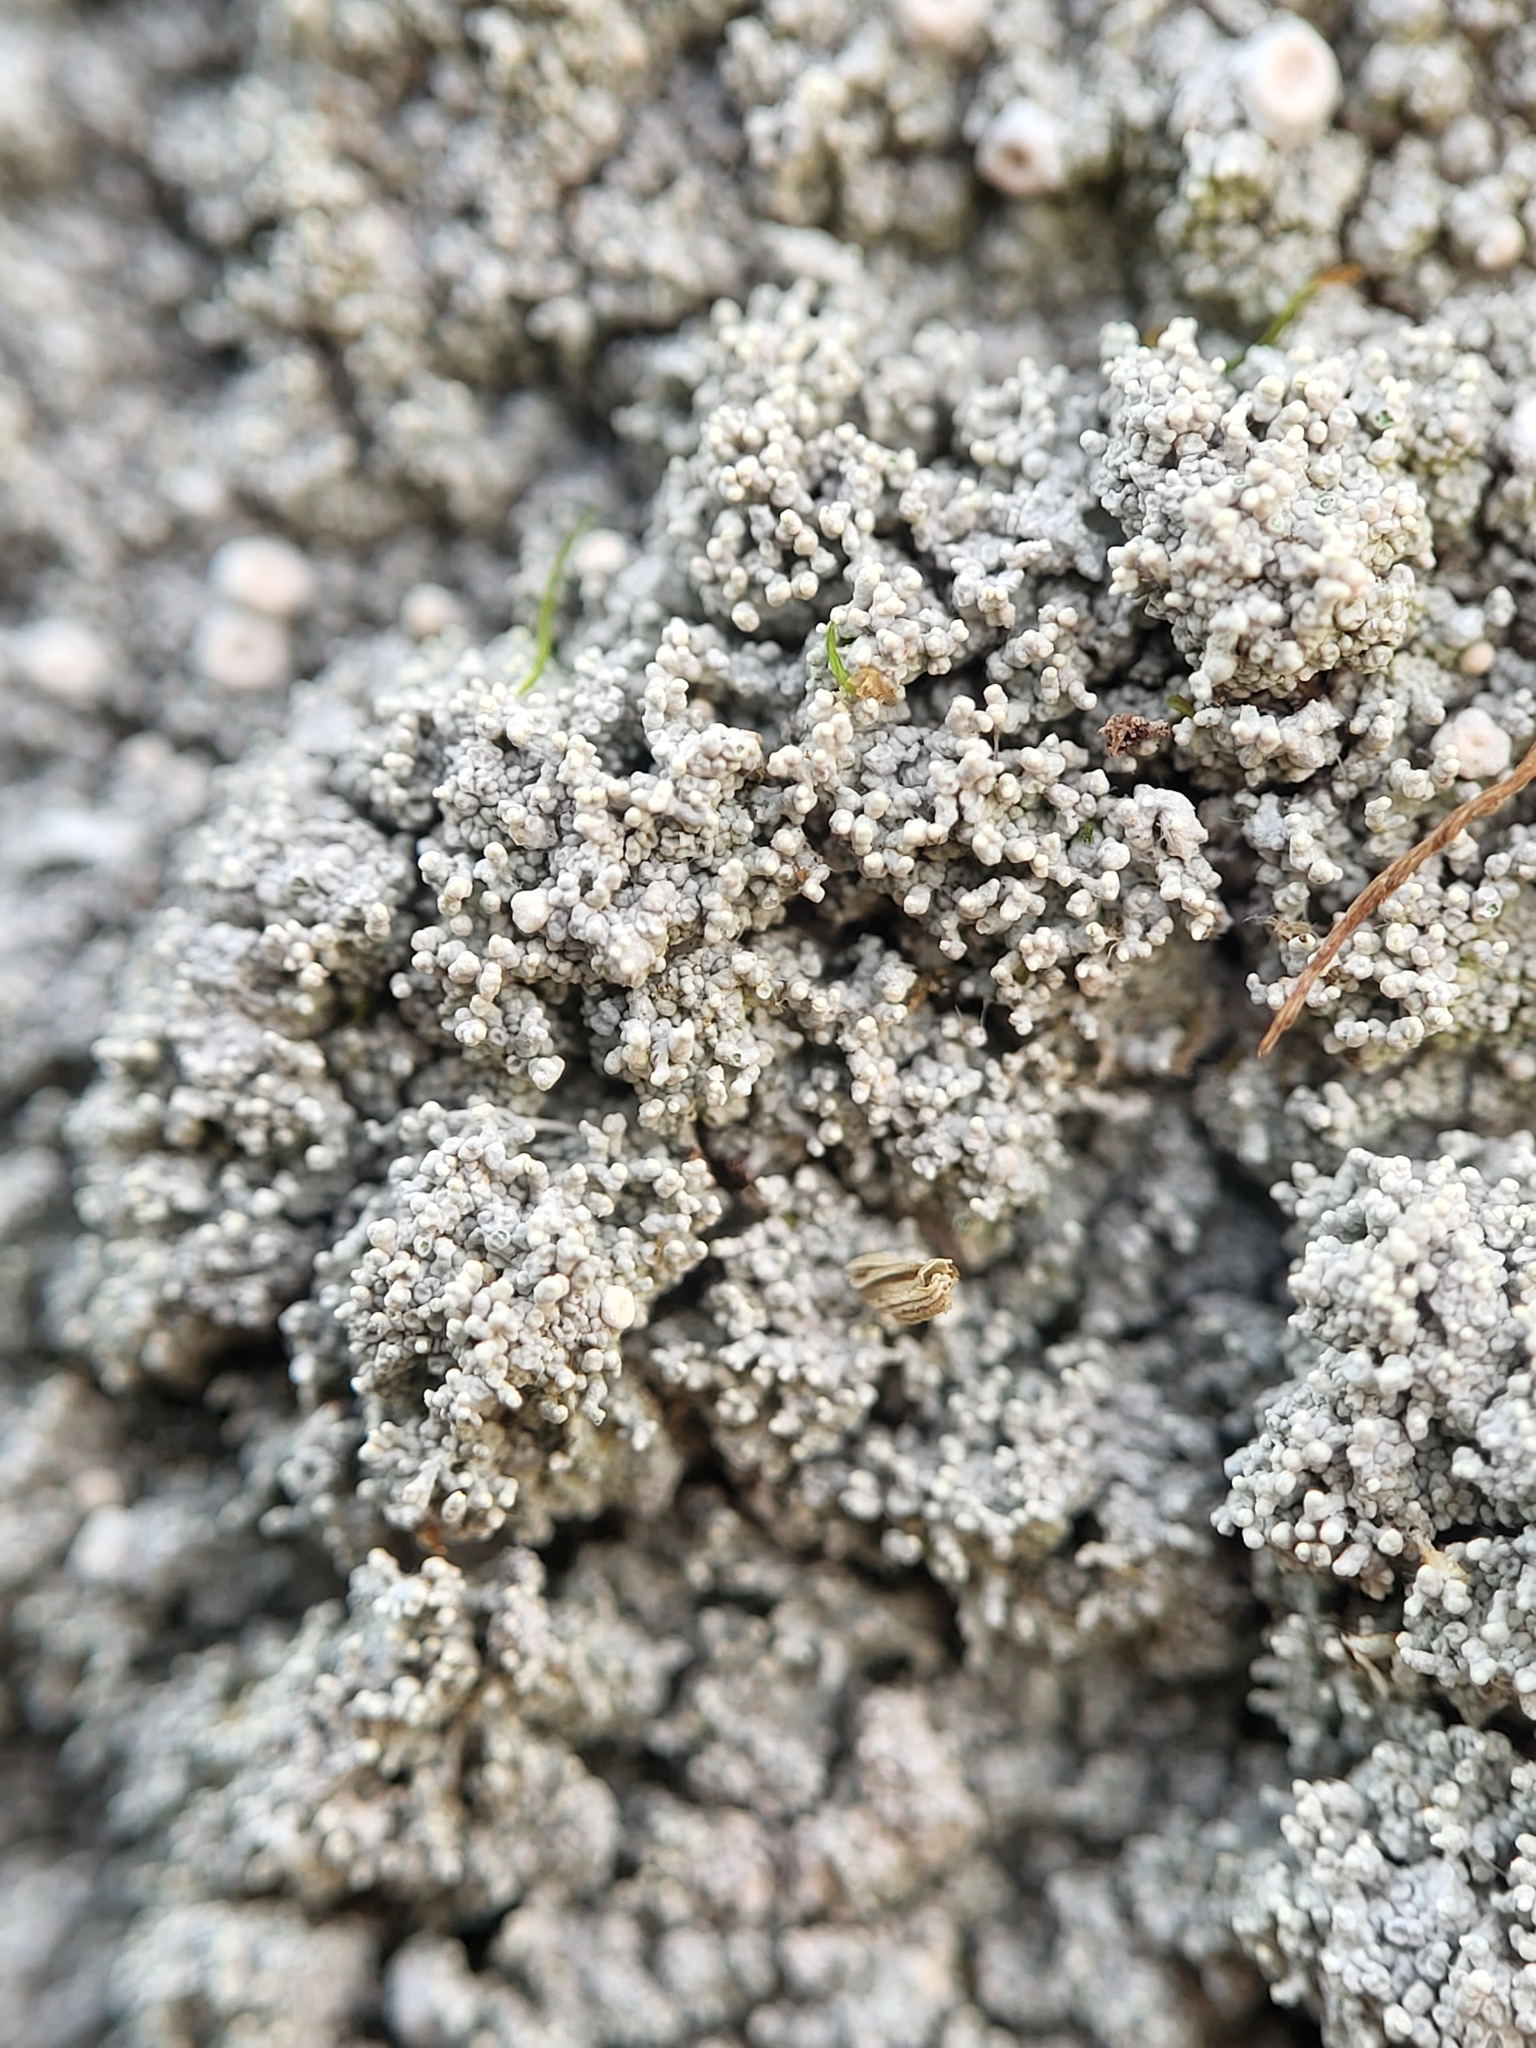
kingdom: Fungi
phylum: Ascomycota
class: Lecanoromycetes
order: Pertusariales
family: Ochrolechiaceae
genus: Ochrolechia
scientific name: Ochrolechia yasudae
